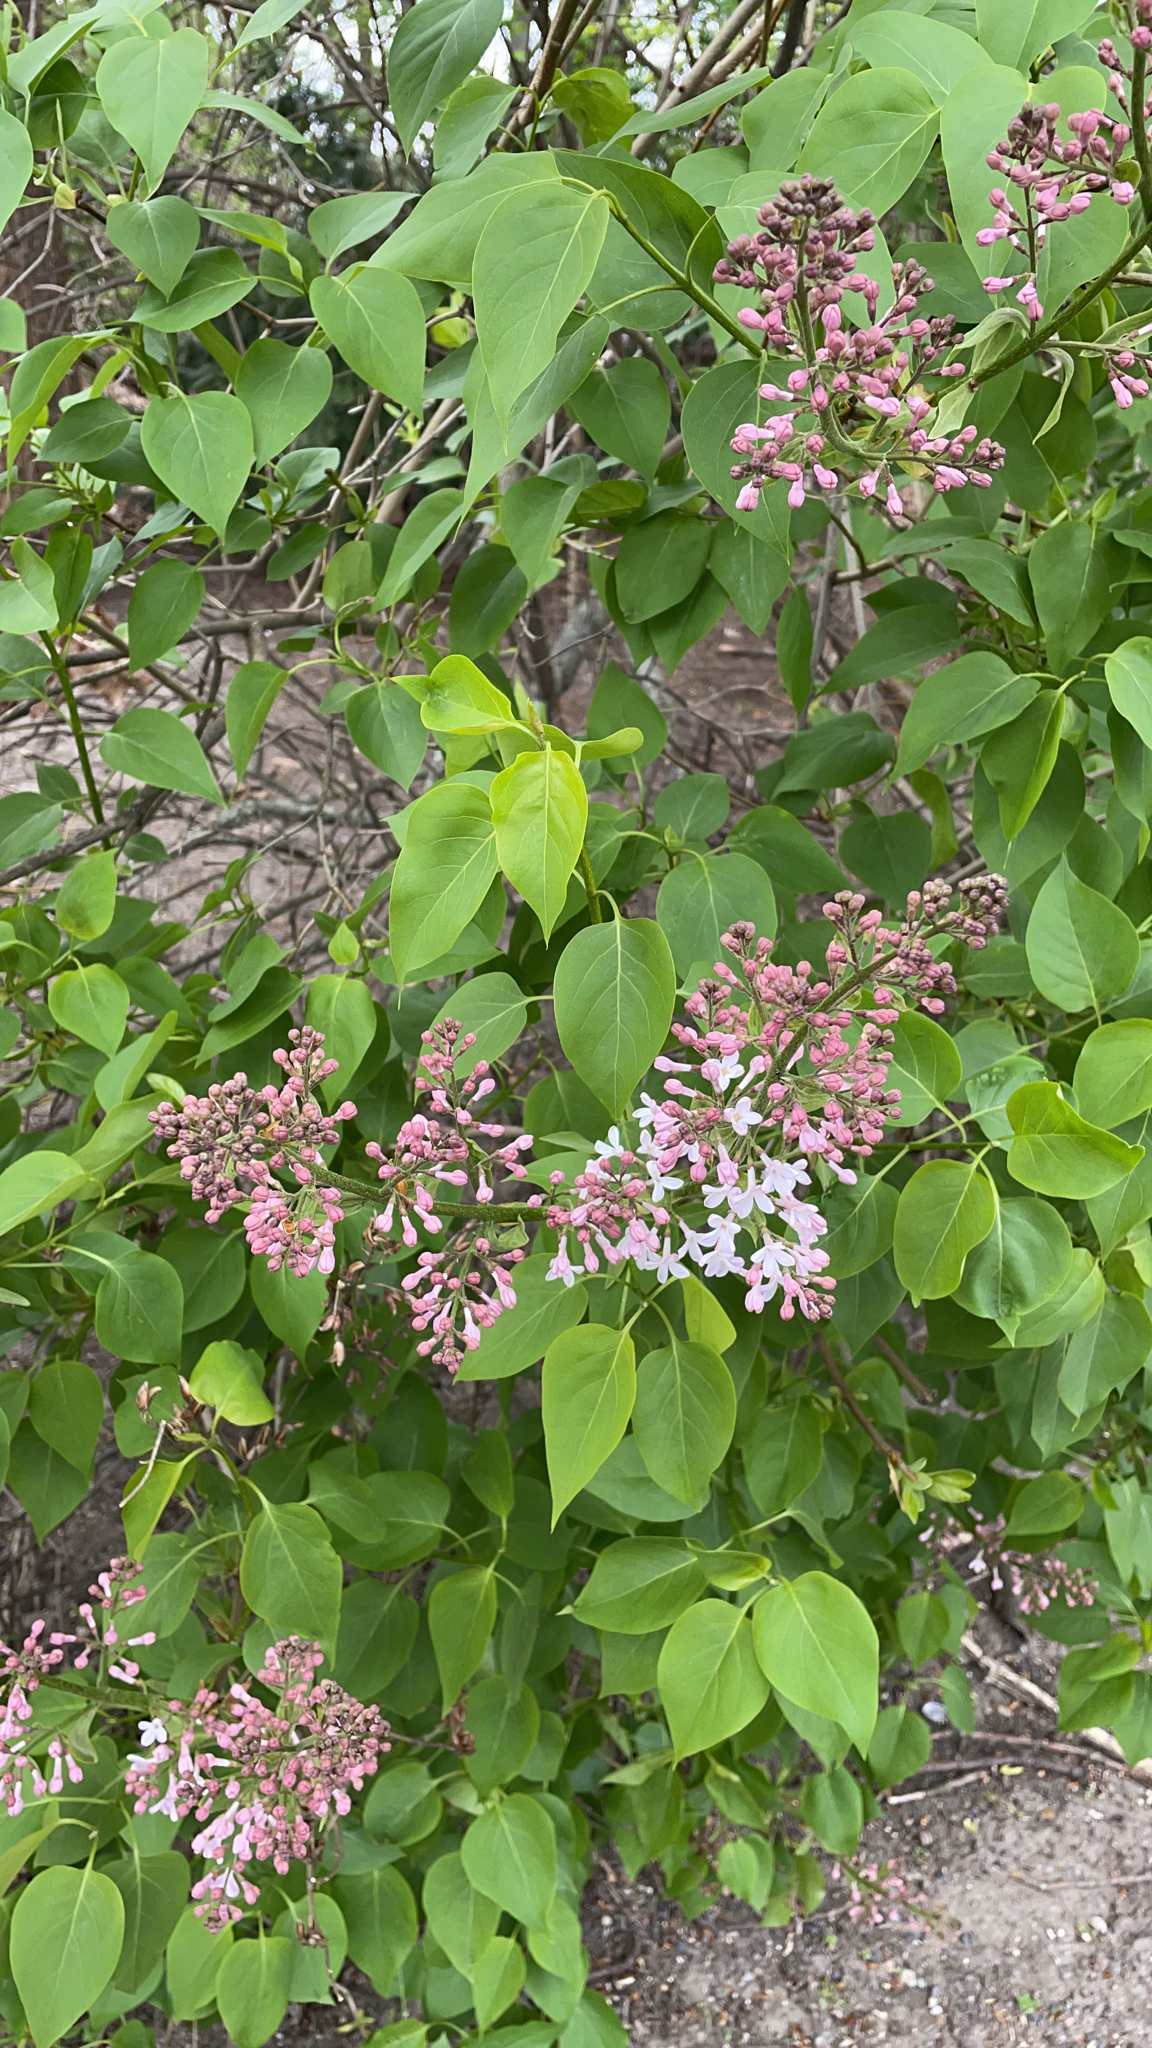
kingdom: Plantae
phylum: Tracheophyta
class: Magnoliopsida
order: Lamiales
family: Oleaceae
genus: Syringa
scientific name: Syringa vulgaris
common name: Common lilac
